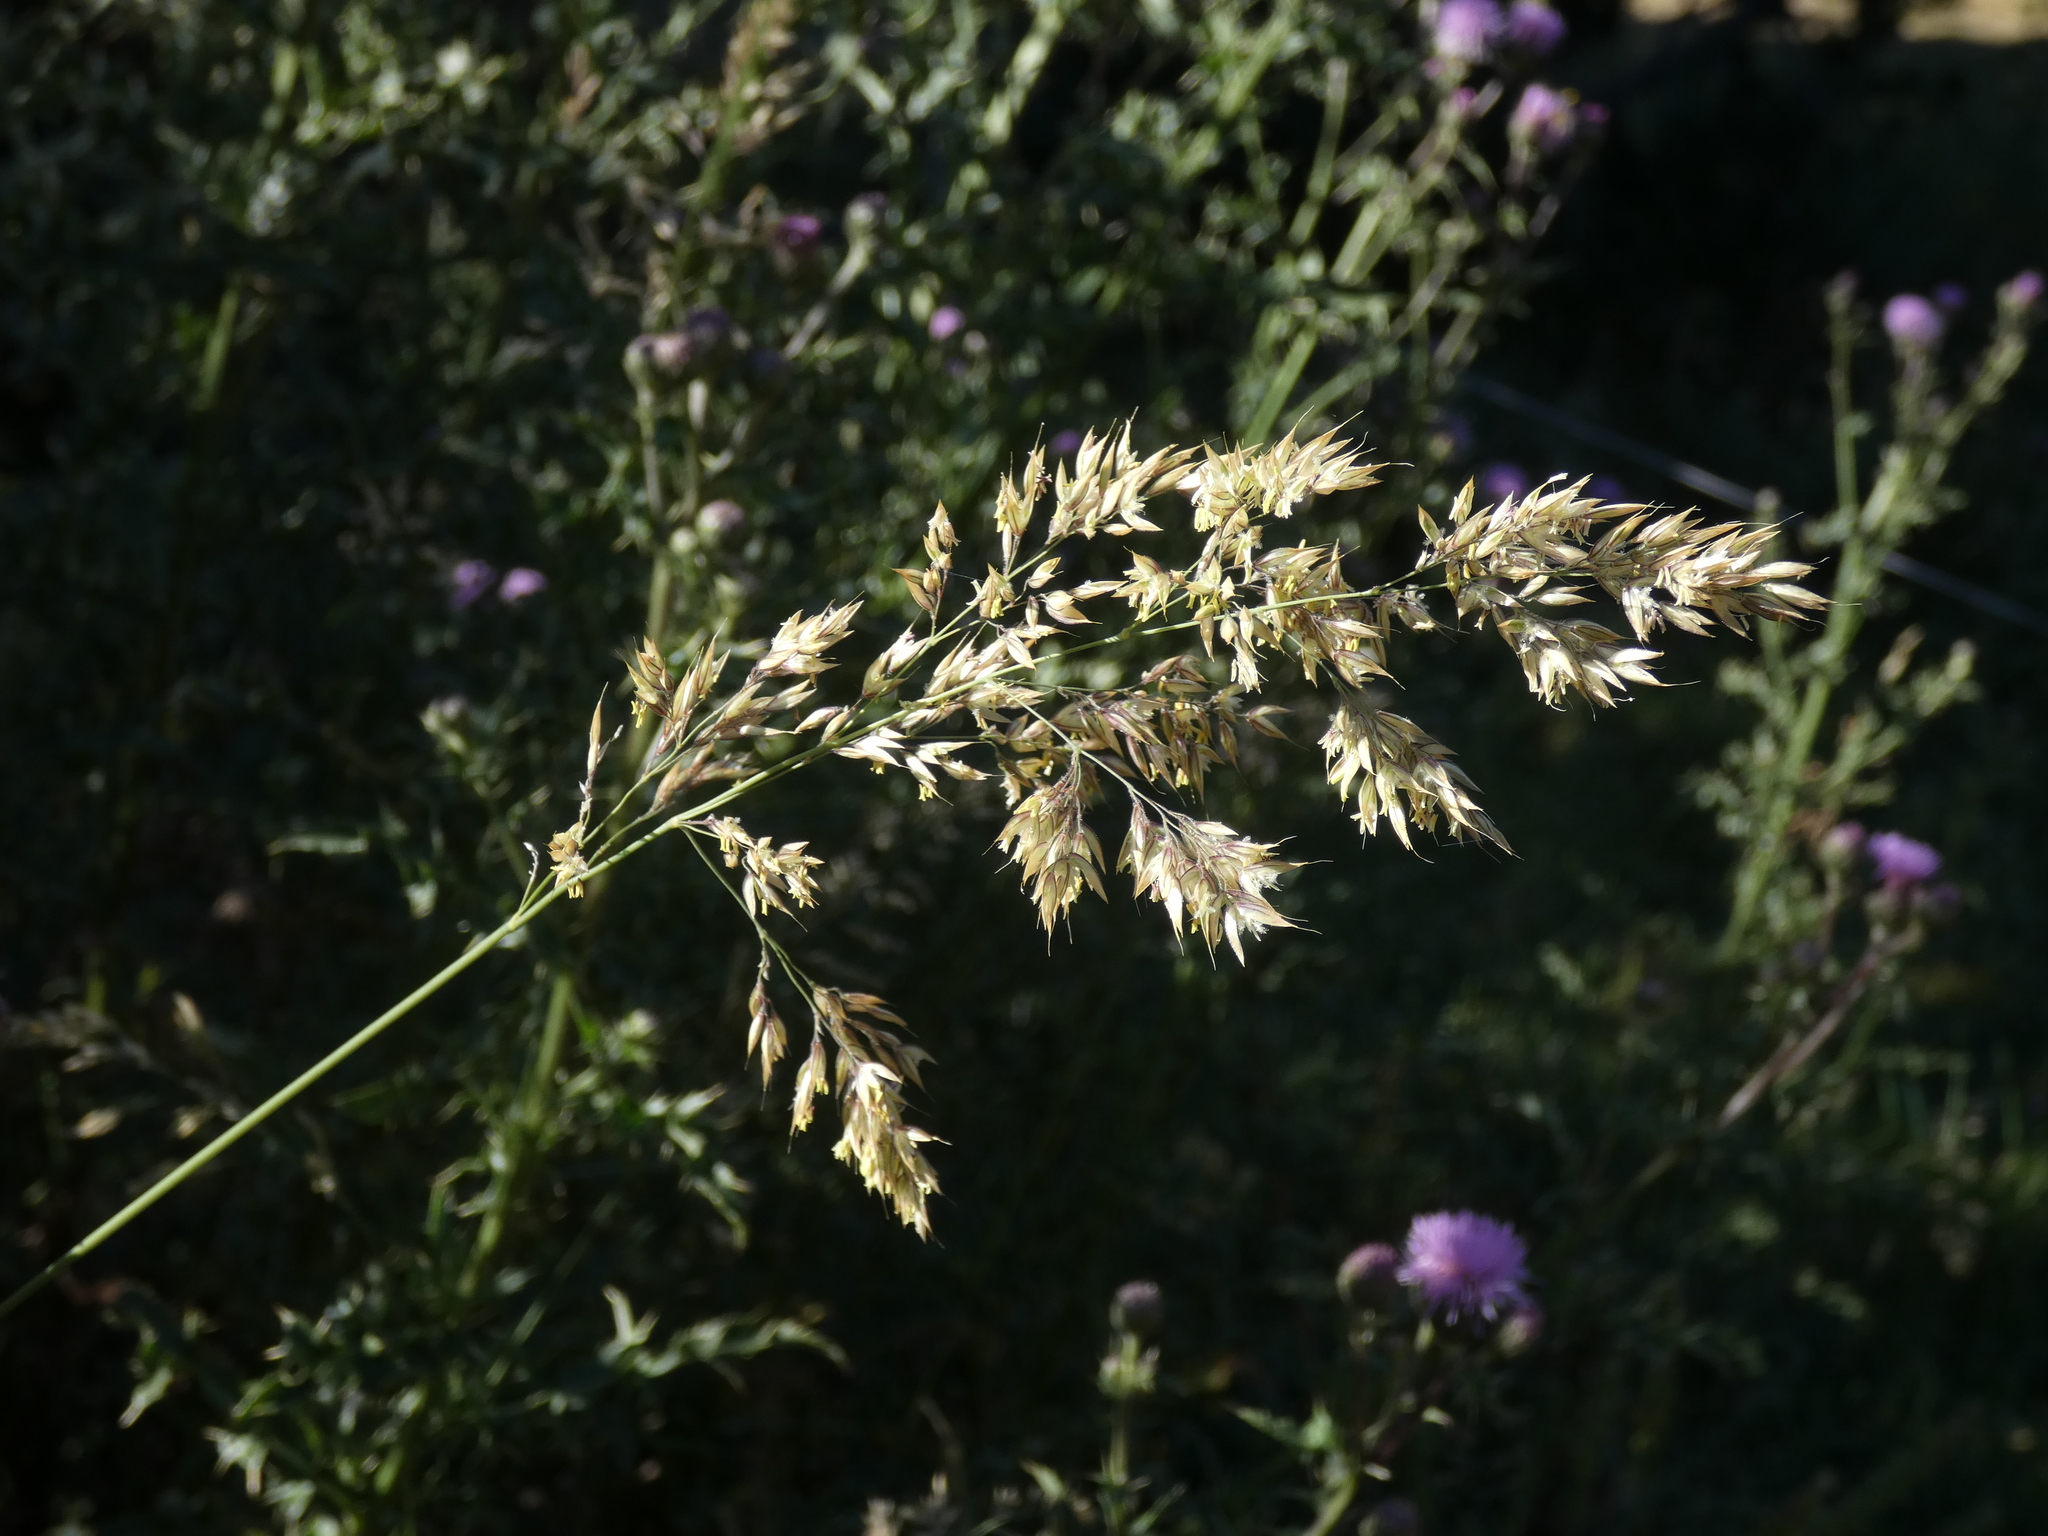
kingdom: Plantae
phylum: Tracheophyta
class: Liliopsida
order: Poales
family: Poaceae
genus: Holcus
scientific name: Holcus mollis
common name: Creeping velvetgrass
